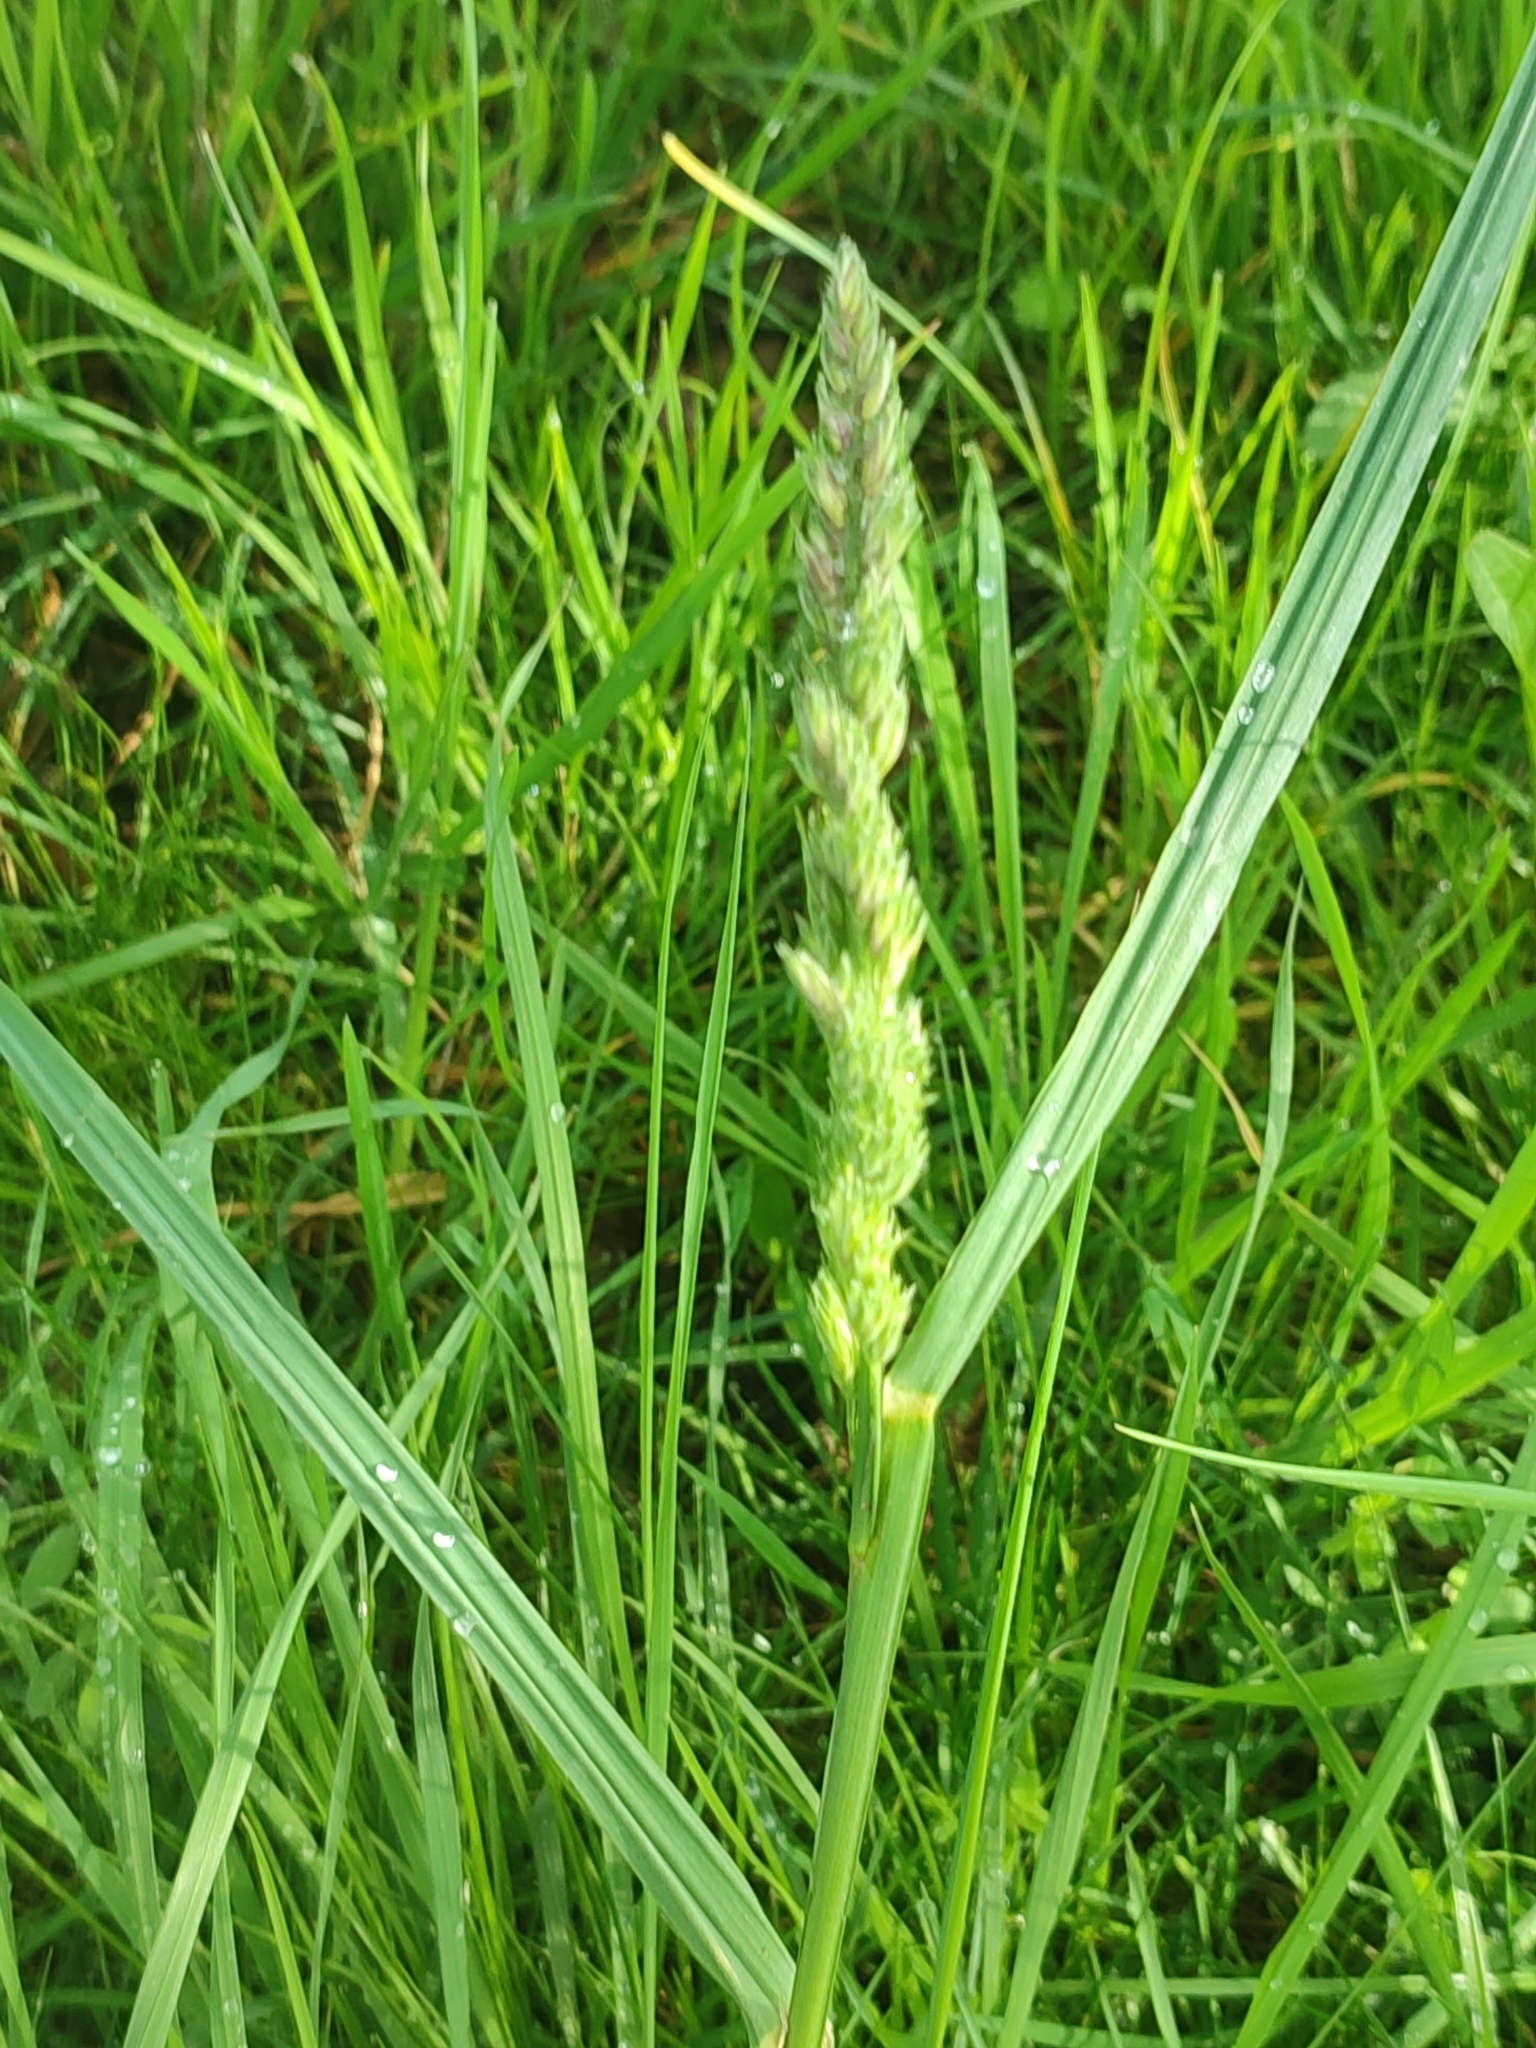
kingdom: Plantae
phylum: Tracheophyta
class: Liliopsida
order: Poales
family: Poaceae
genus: Dactylis
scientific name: Dactylis glomerata
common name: Orchardgrass
